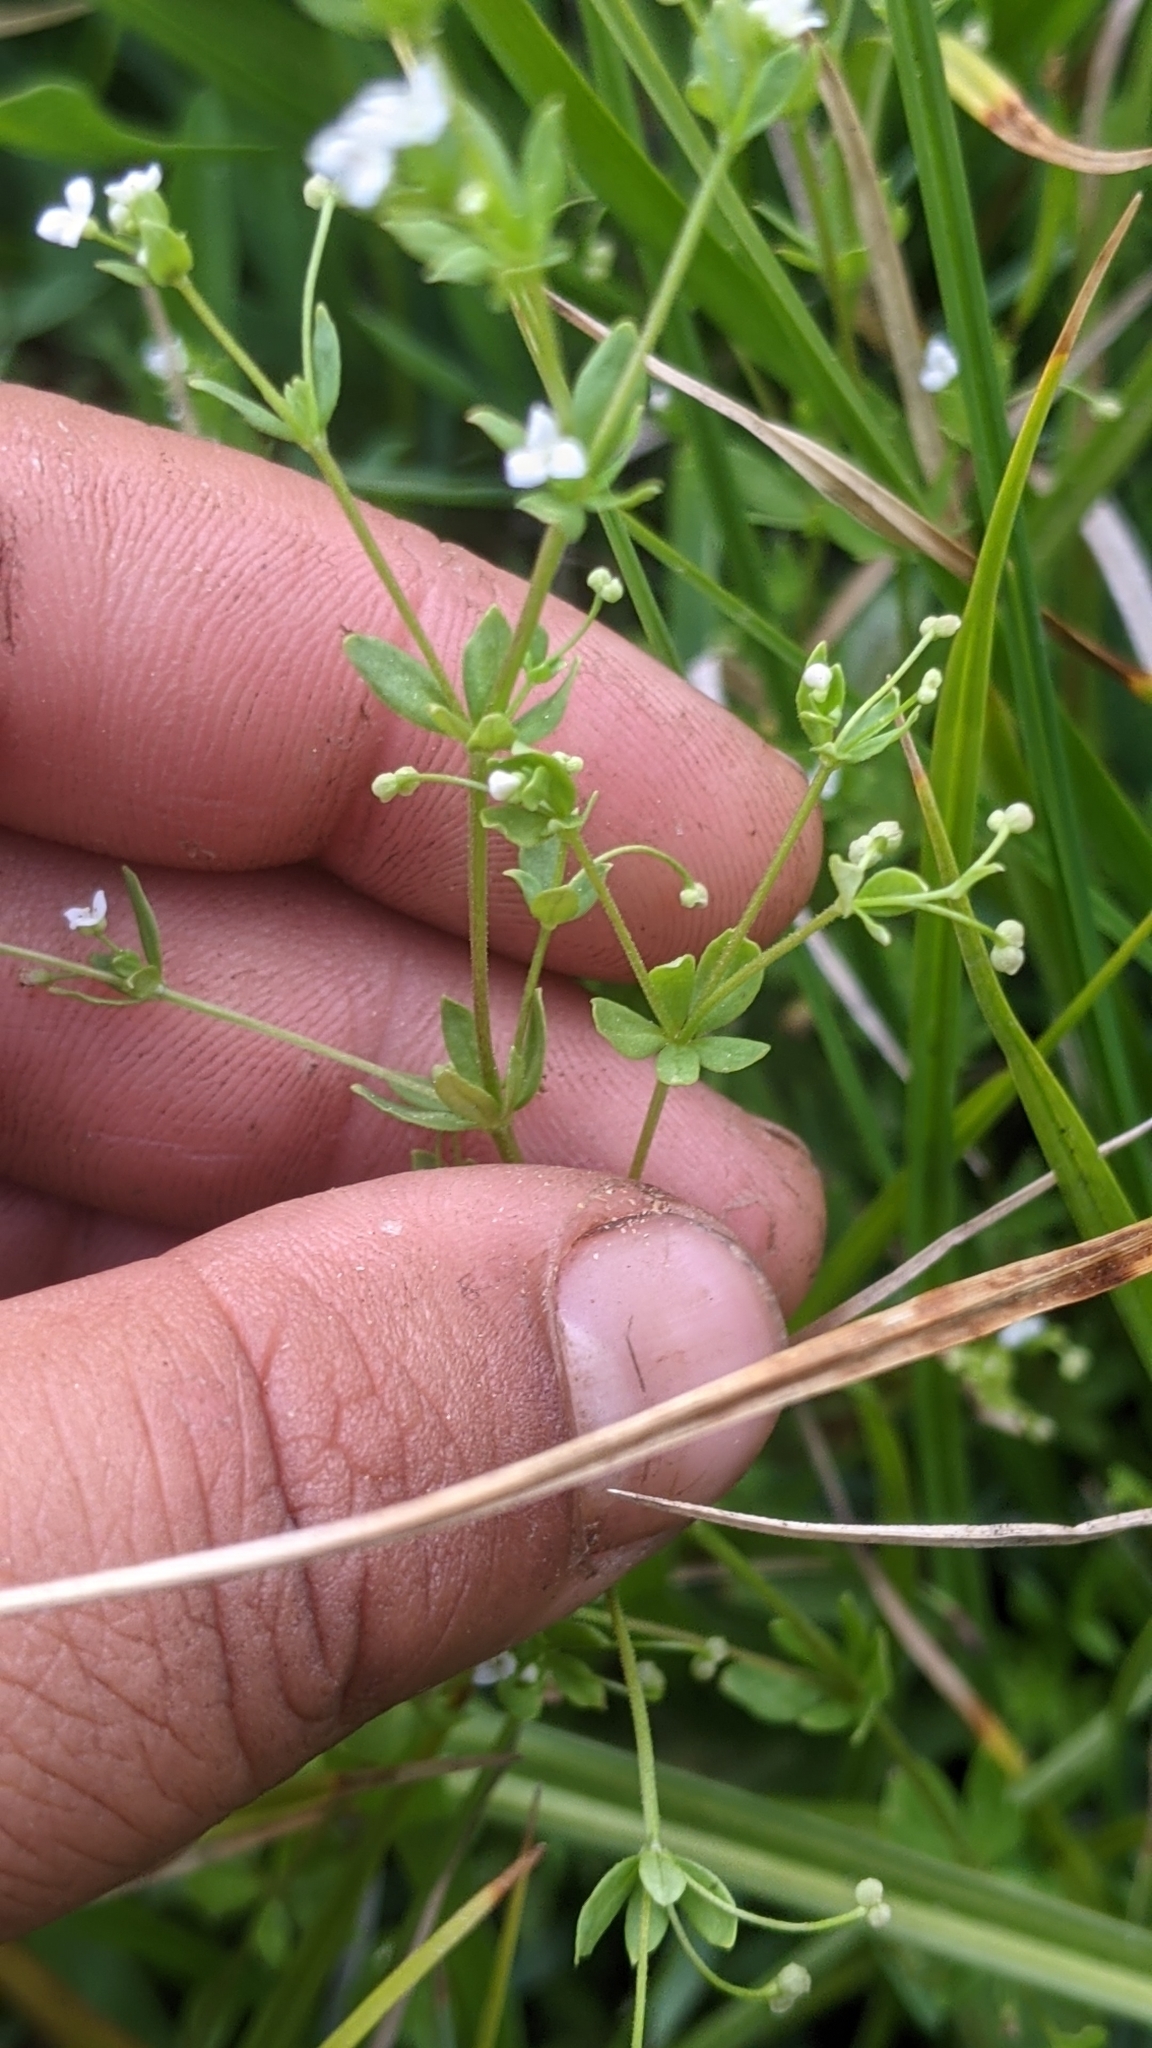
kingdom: Plantae
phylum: Tracheophyta
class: Magnoliopsida
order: Gentianales
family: Rubiaceae
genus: Galium
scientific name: Galium trifidum
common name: Small bedstraw
